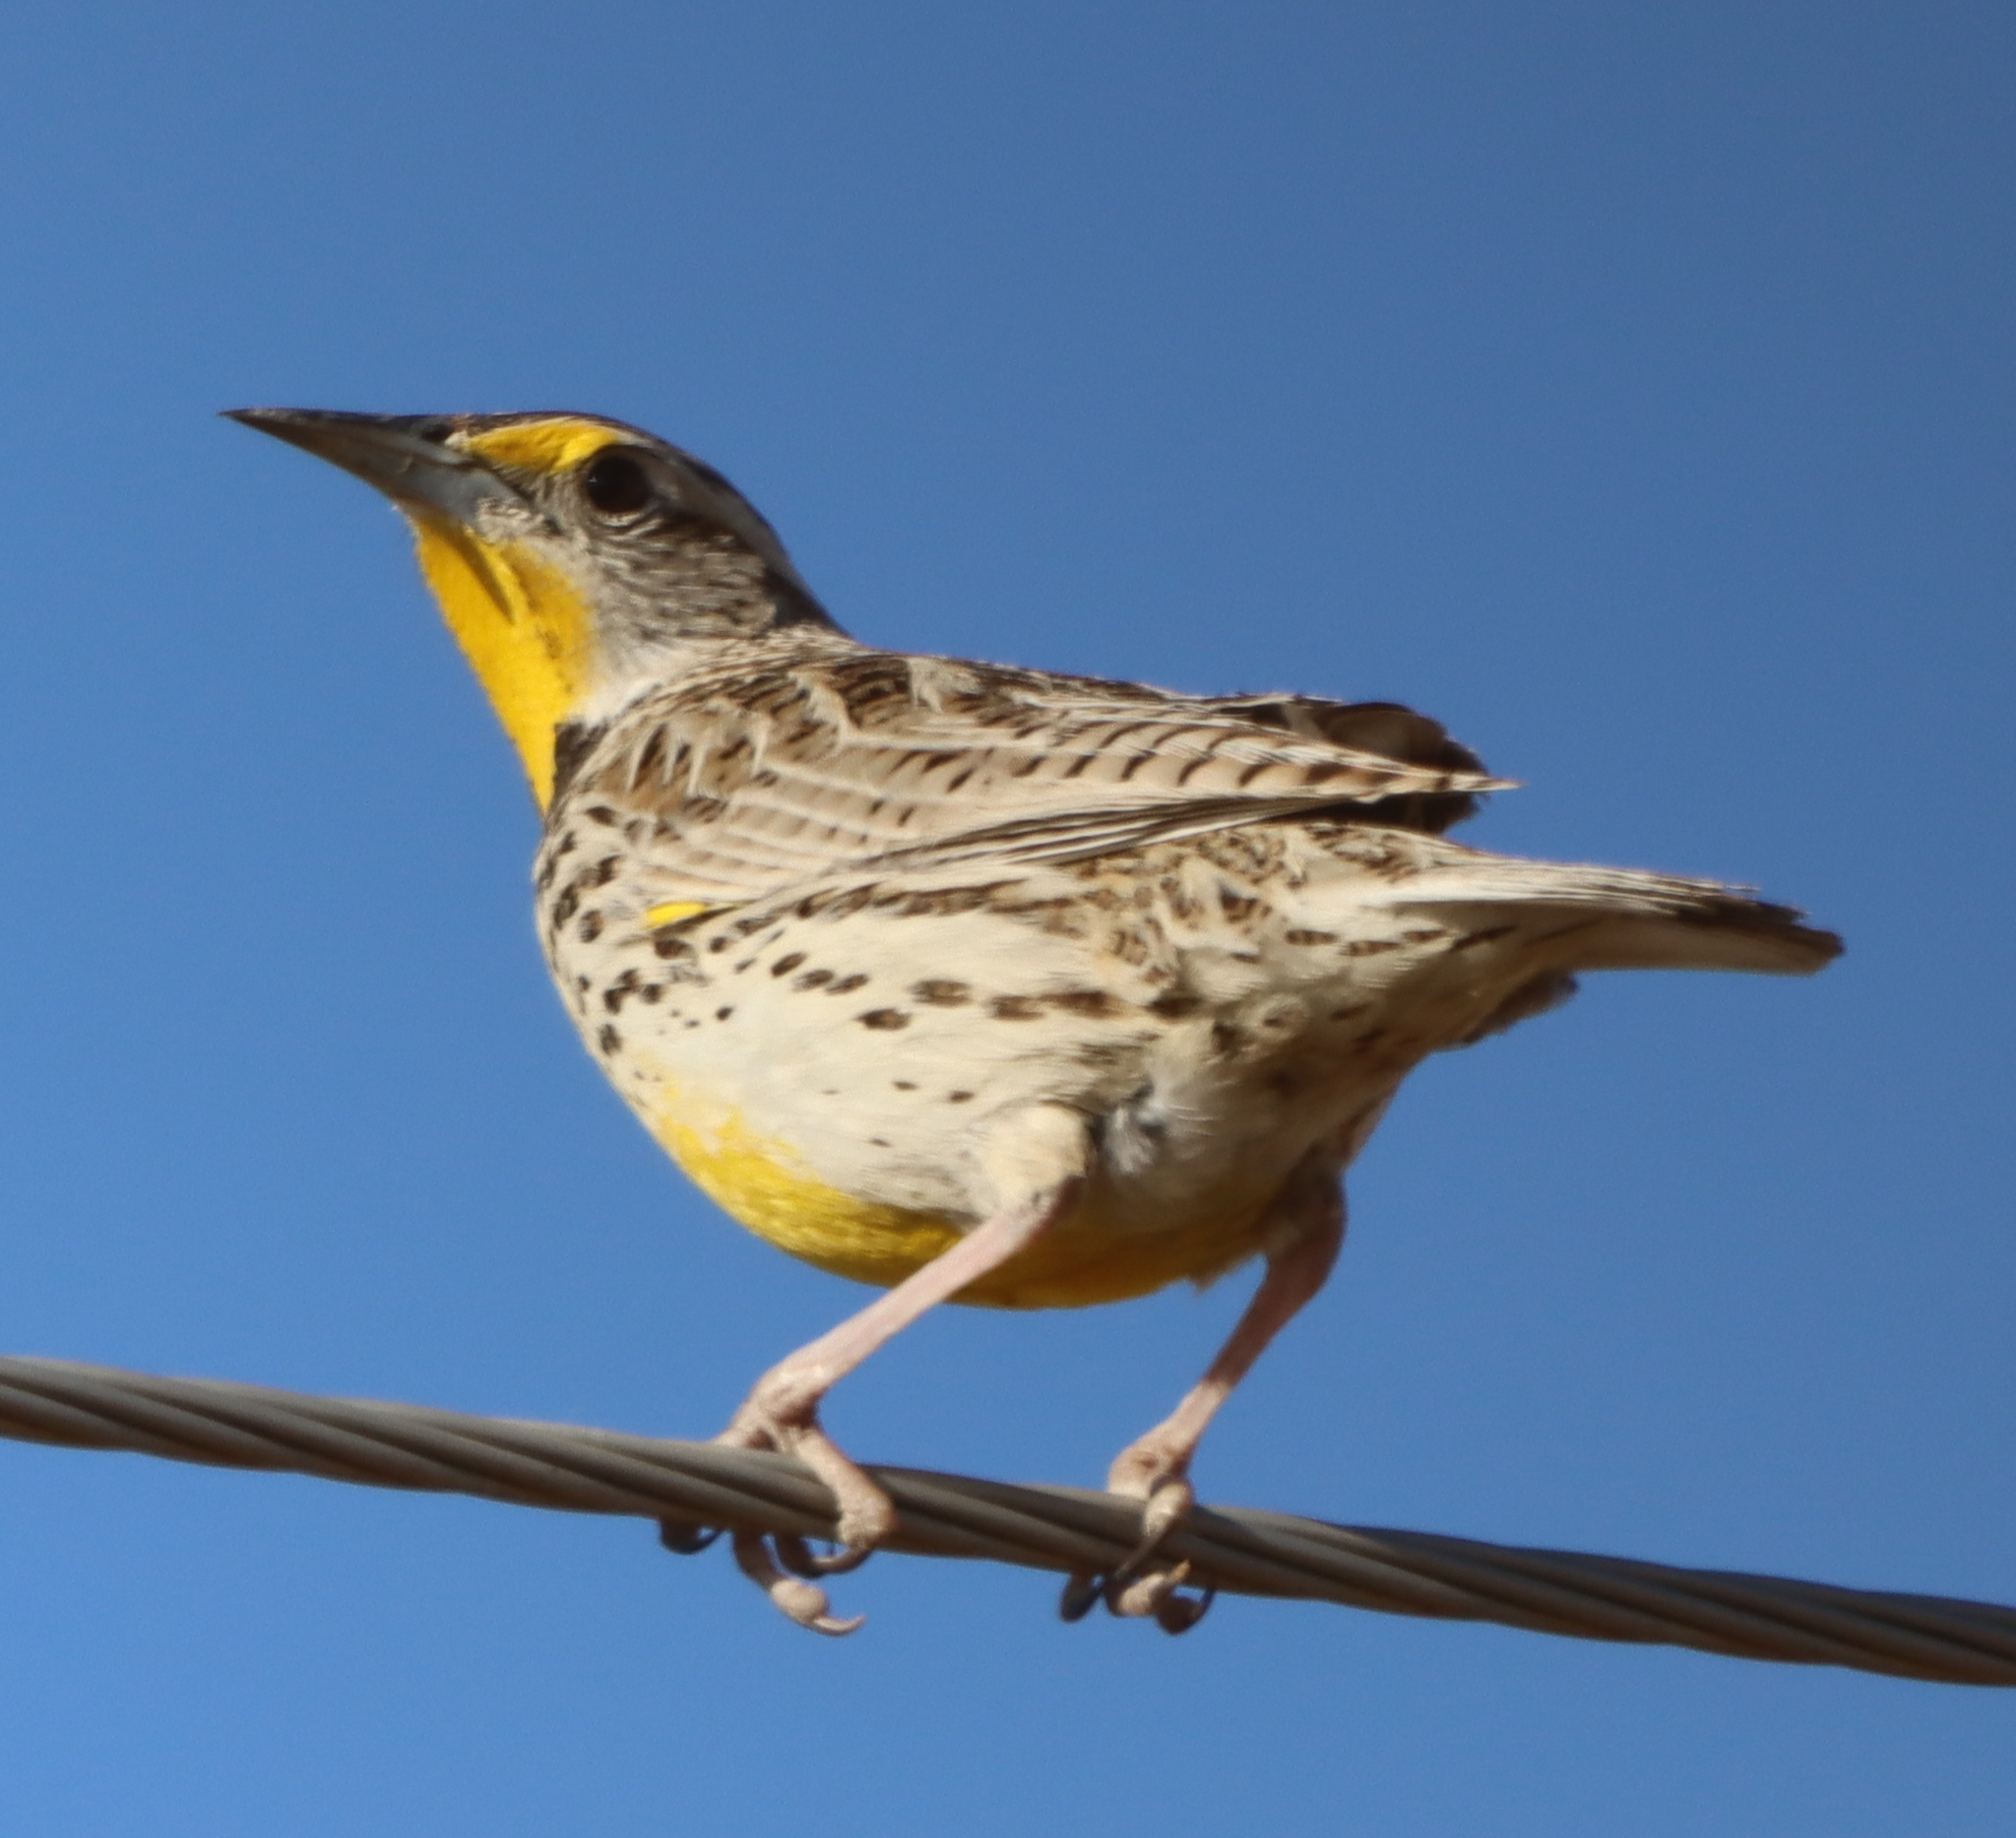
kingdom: Animalia
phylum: Chordata
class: Aves
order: Passeriformes
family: Icteridae
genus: Sturnella
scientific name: Sturnella neglecta
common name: Western meadowlark
